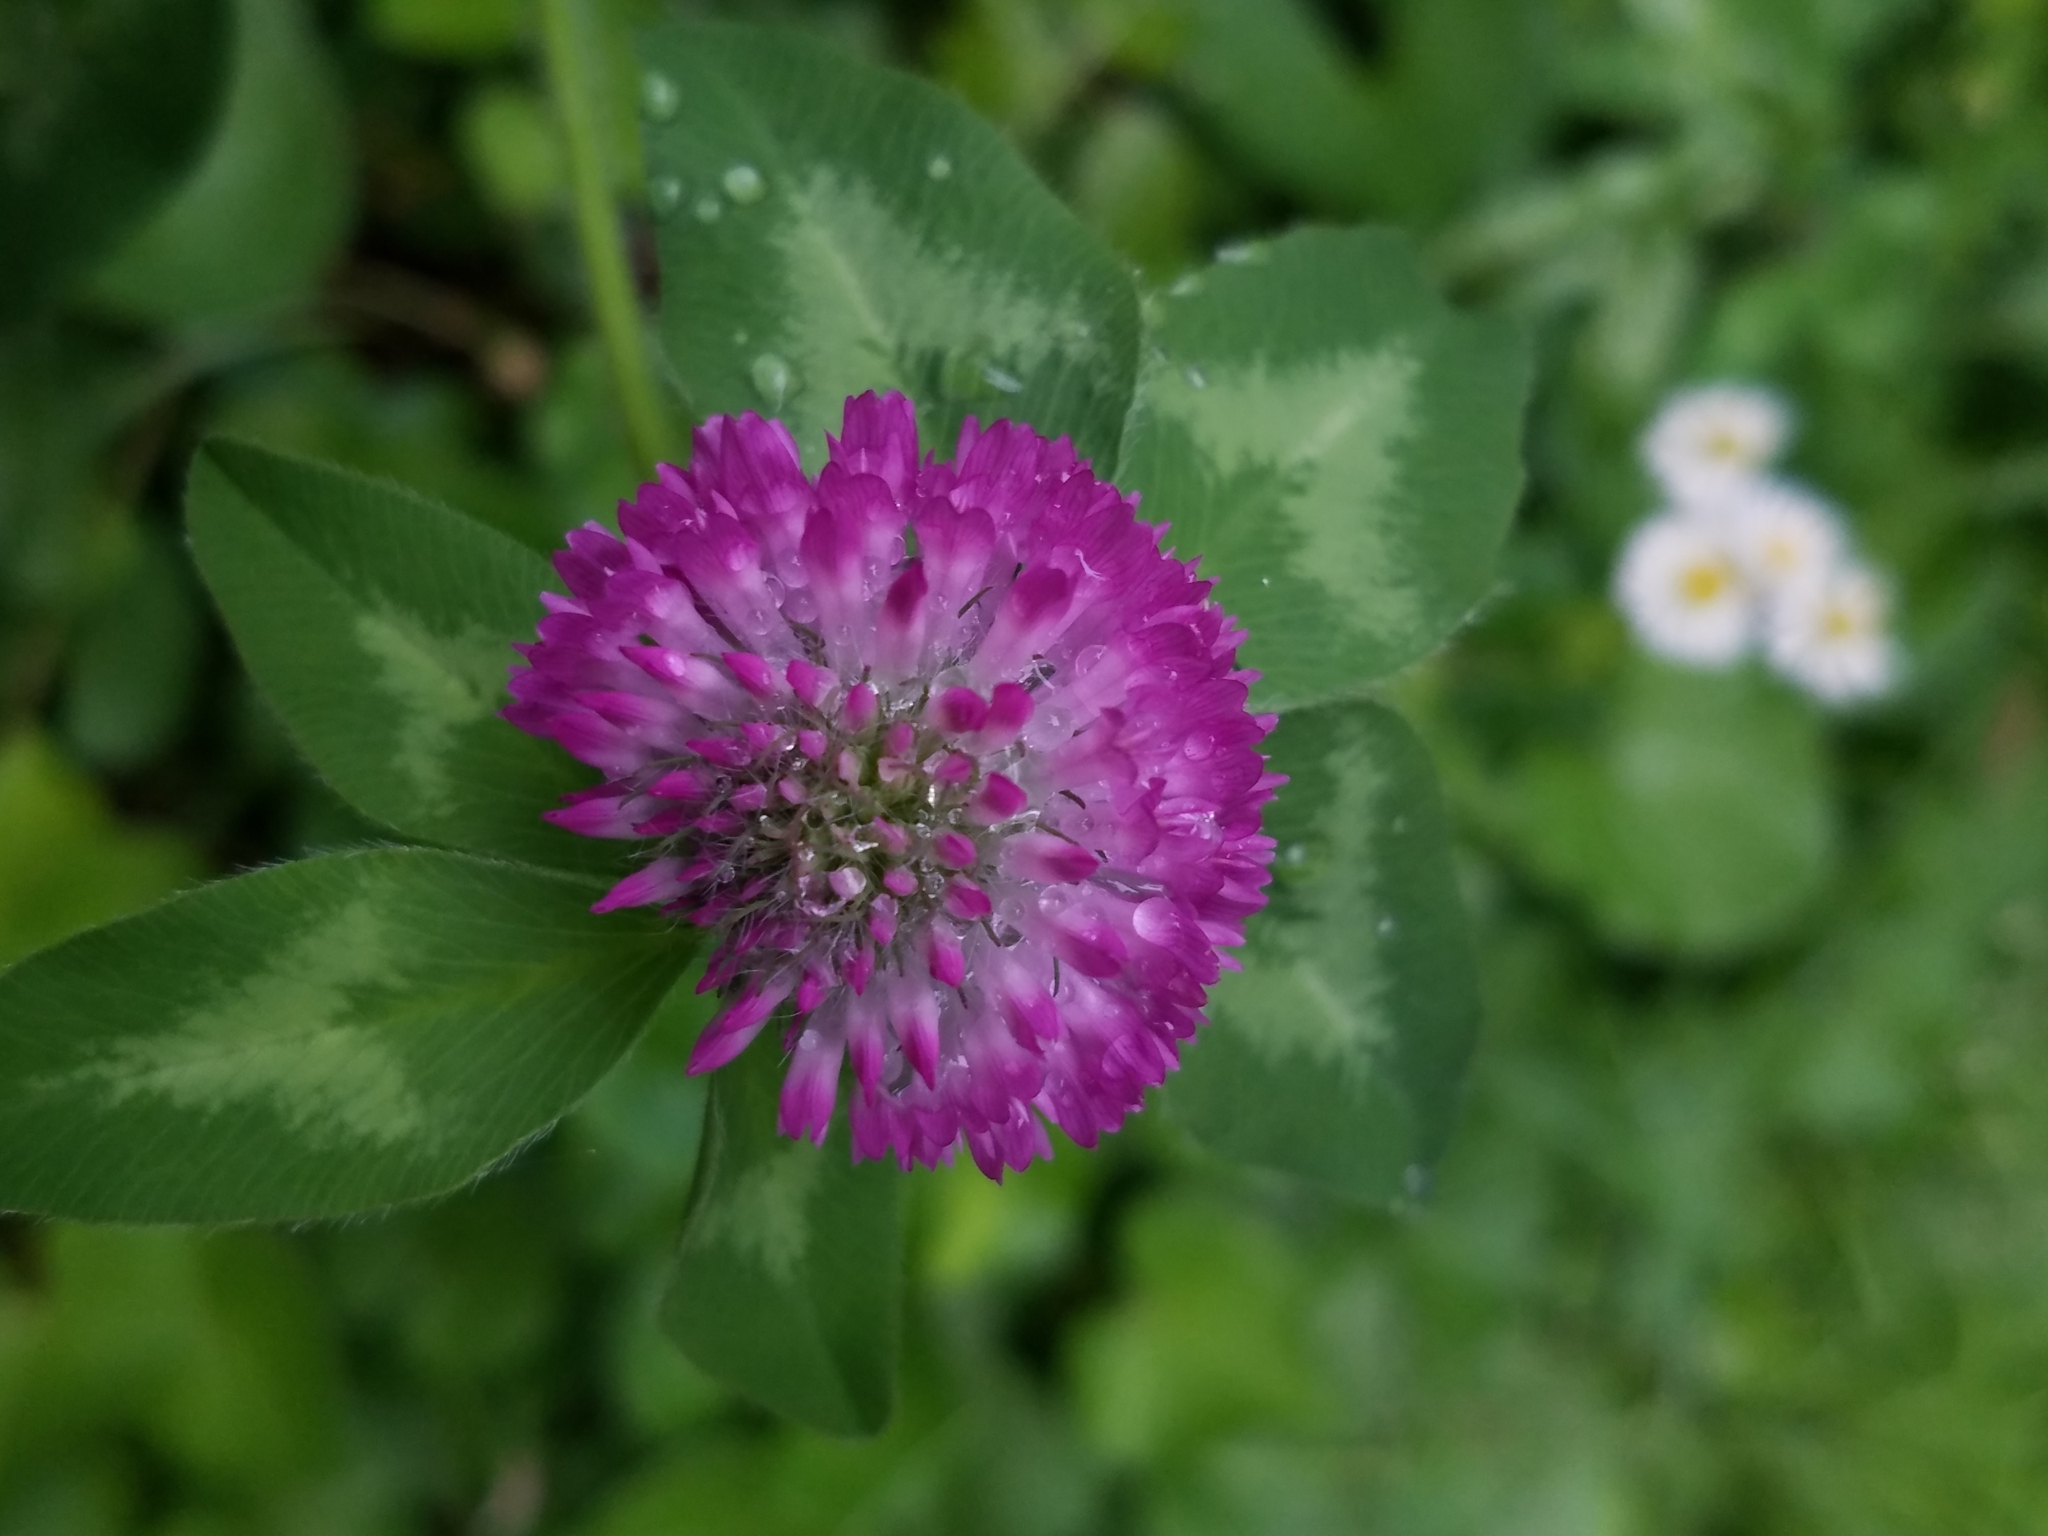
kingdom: Plantae
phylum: Tracheophyta
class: Magnoliopsida
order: Fabales
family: Fabaceae
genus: Trifolium
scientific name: Trifolium pratense
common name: Red clover
